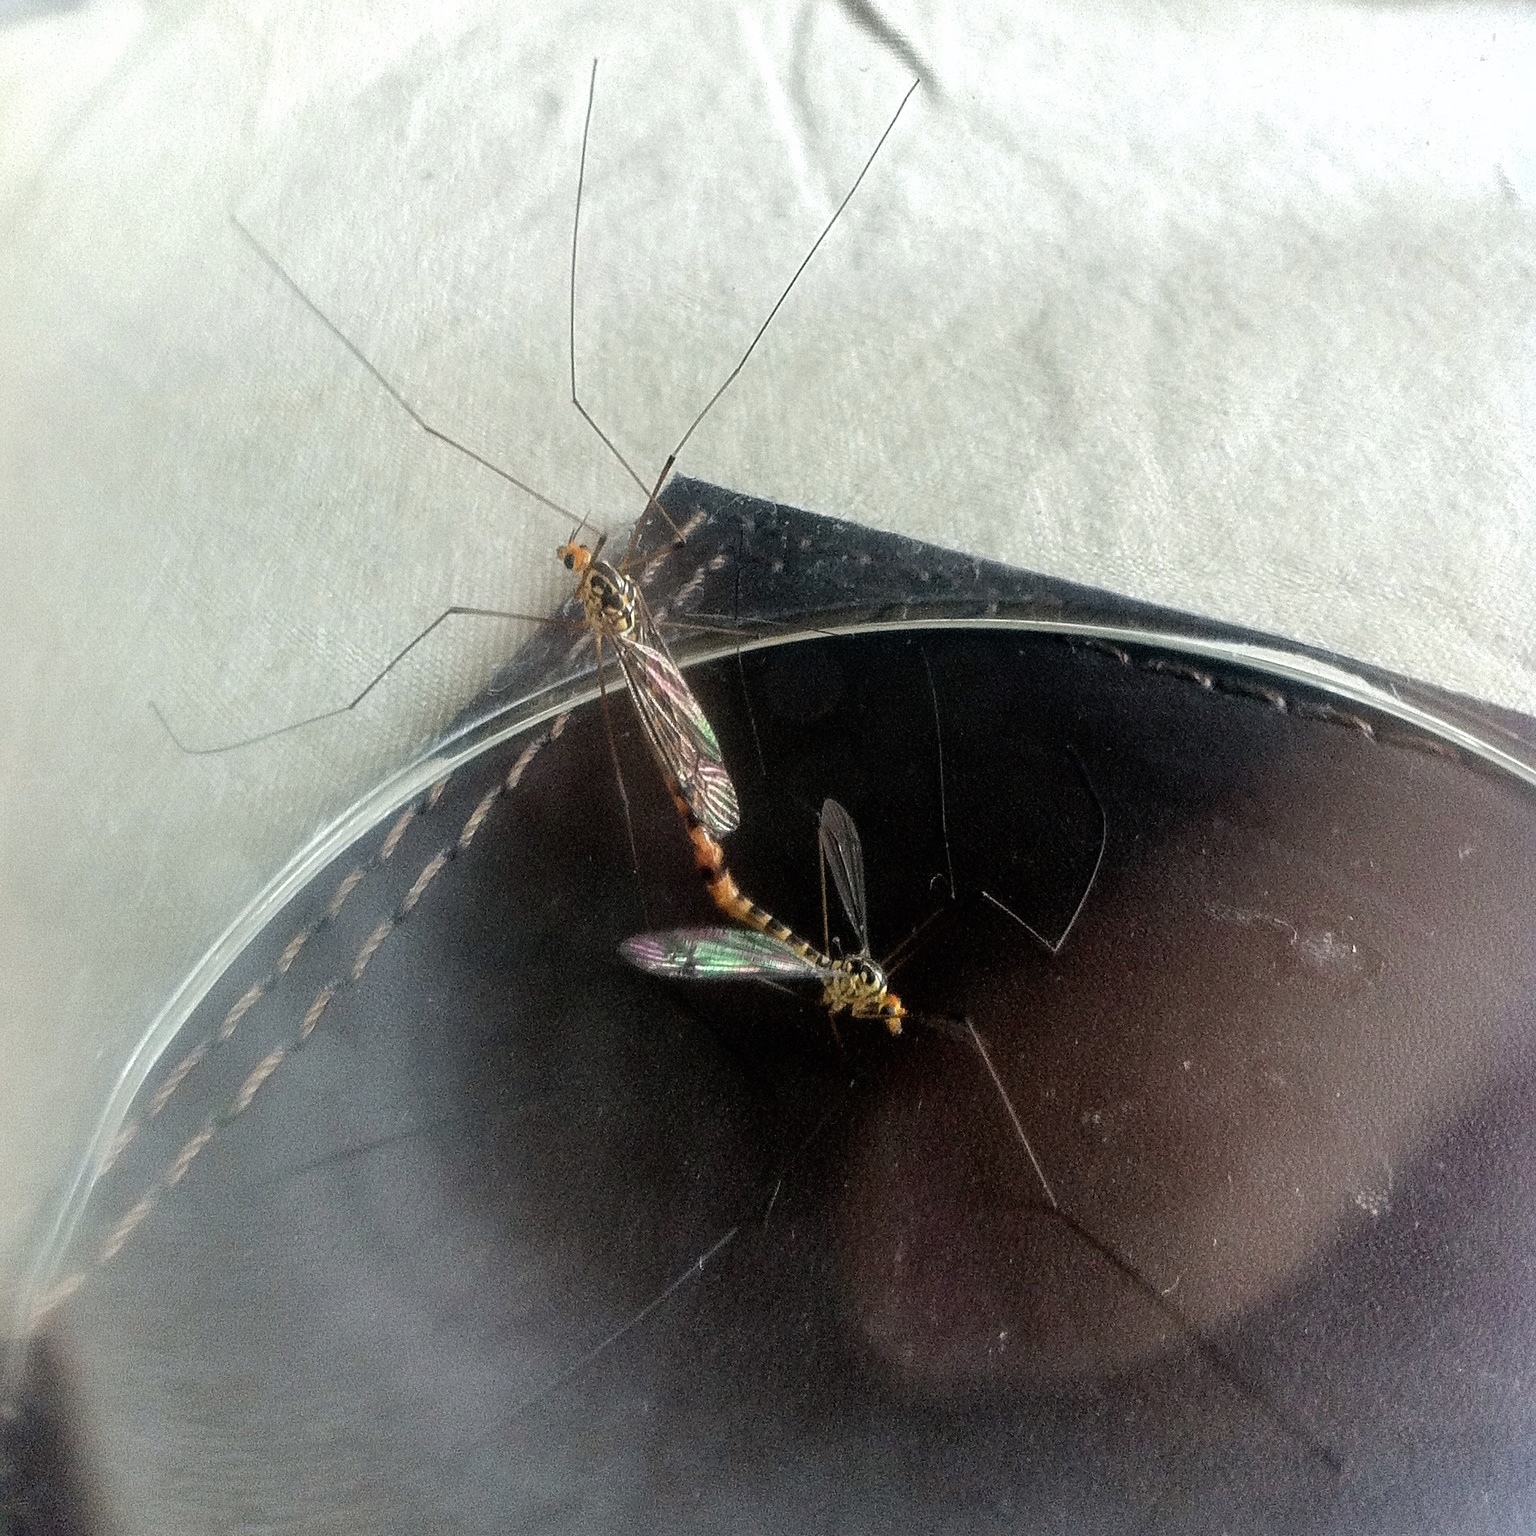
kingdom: Animalia
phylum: Arthropoda
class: Insecta
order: Diptera
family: Tipulidae
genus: Nephrotoma
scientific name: Nephrotoma flavipalpis
